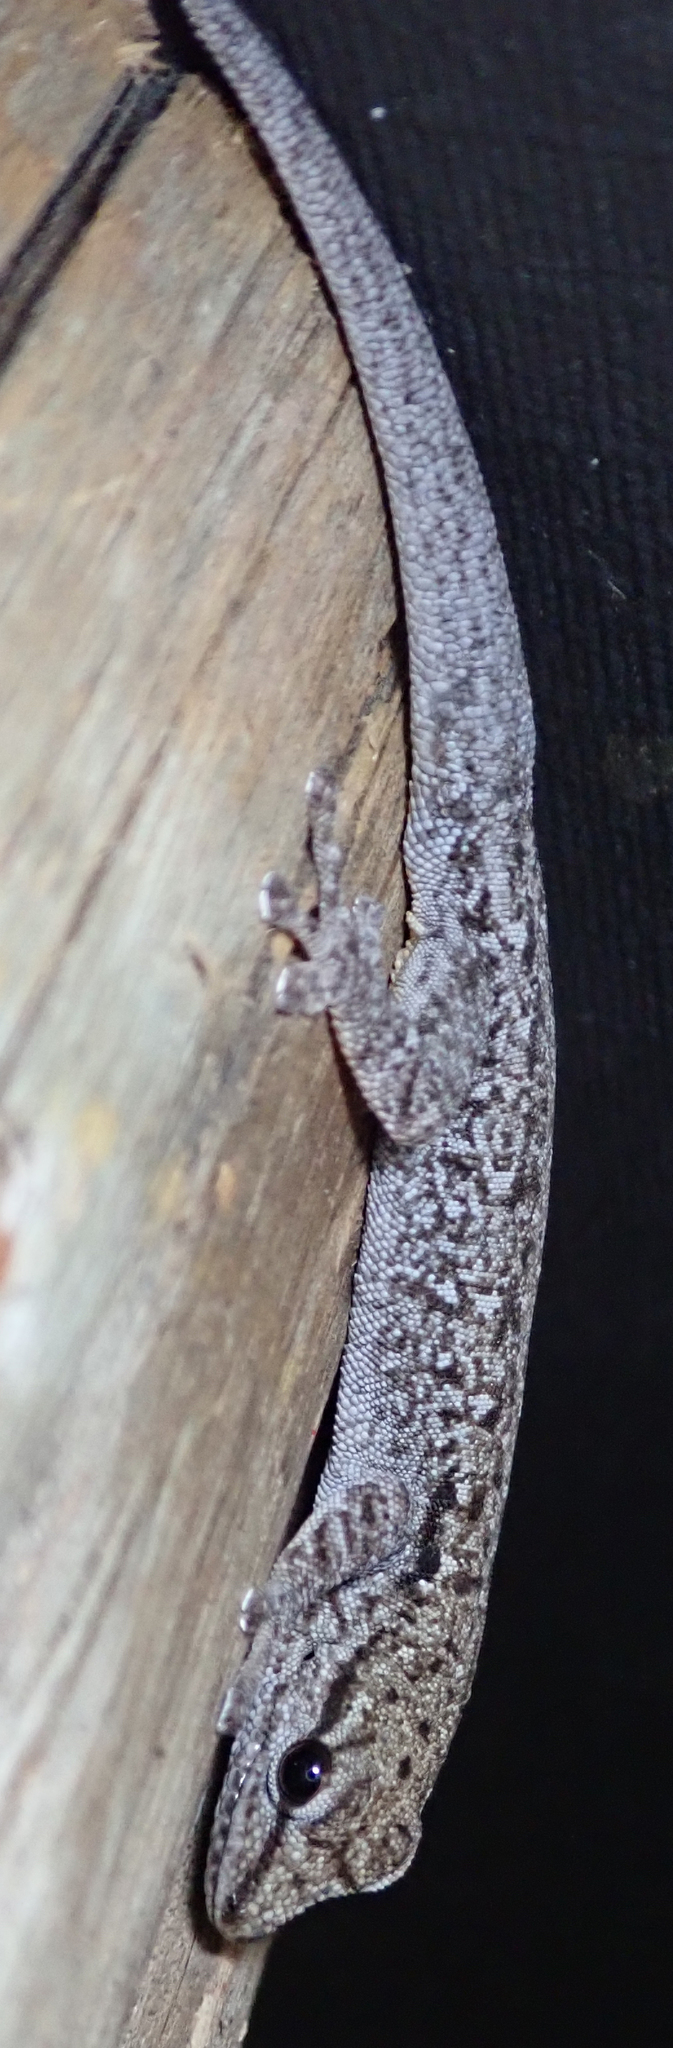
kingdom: Animalia
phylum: Chordata
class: Squamata
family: Gekkonidae
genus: Lygodactylus
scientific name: Lygodactylus chobiensis
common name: Okavango dwarf gecko
